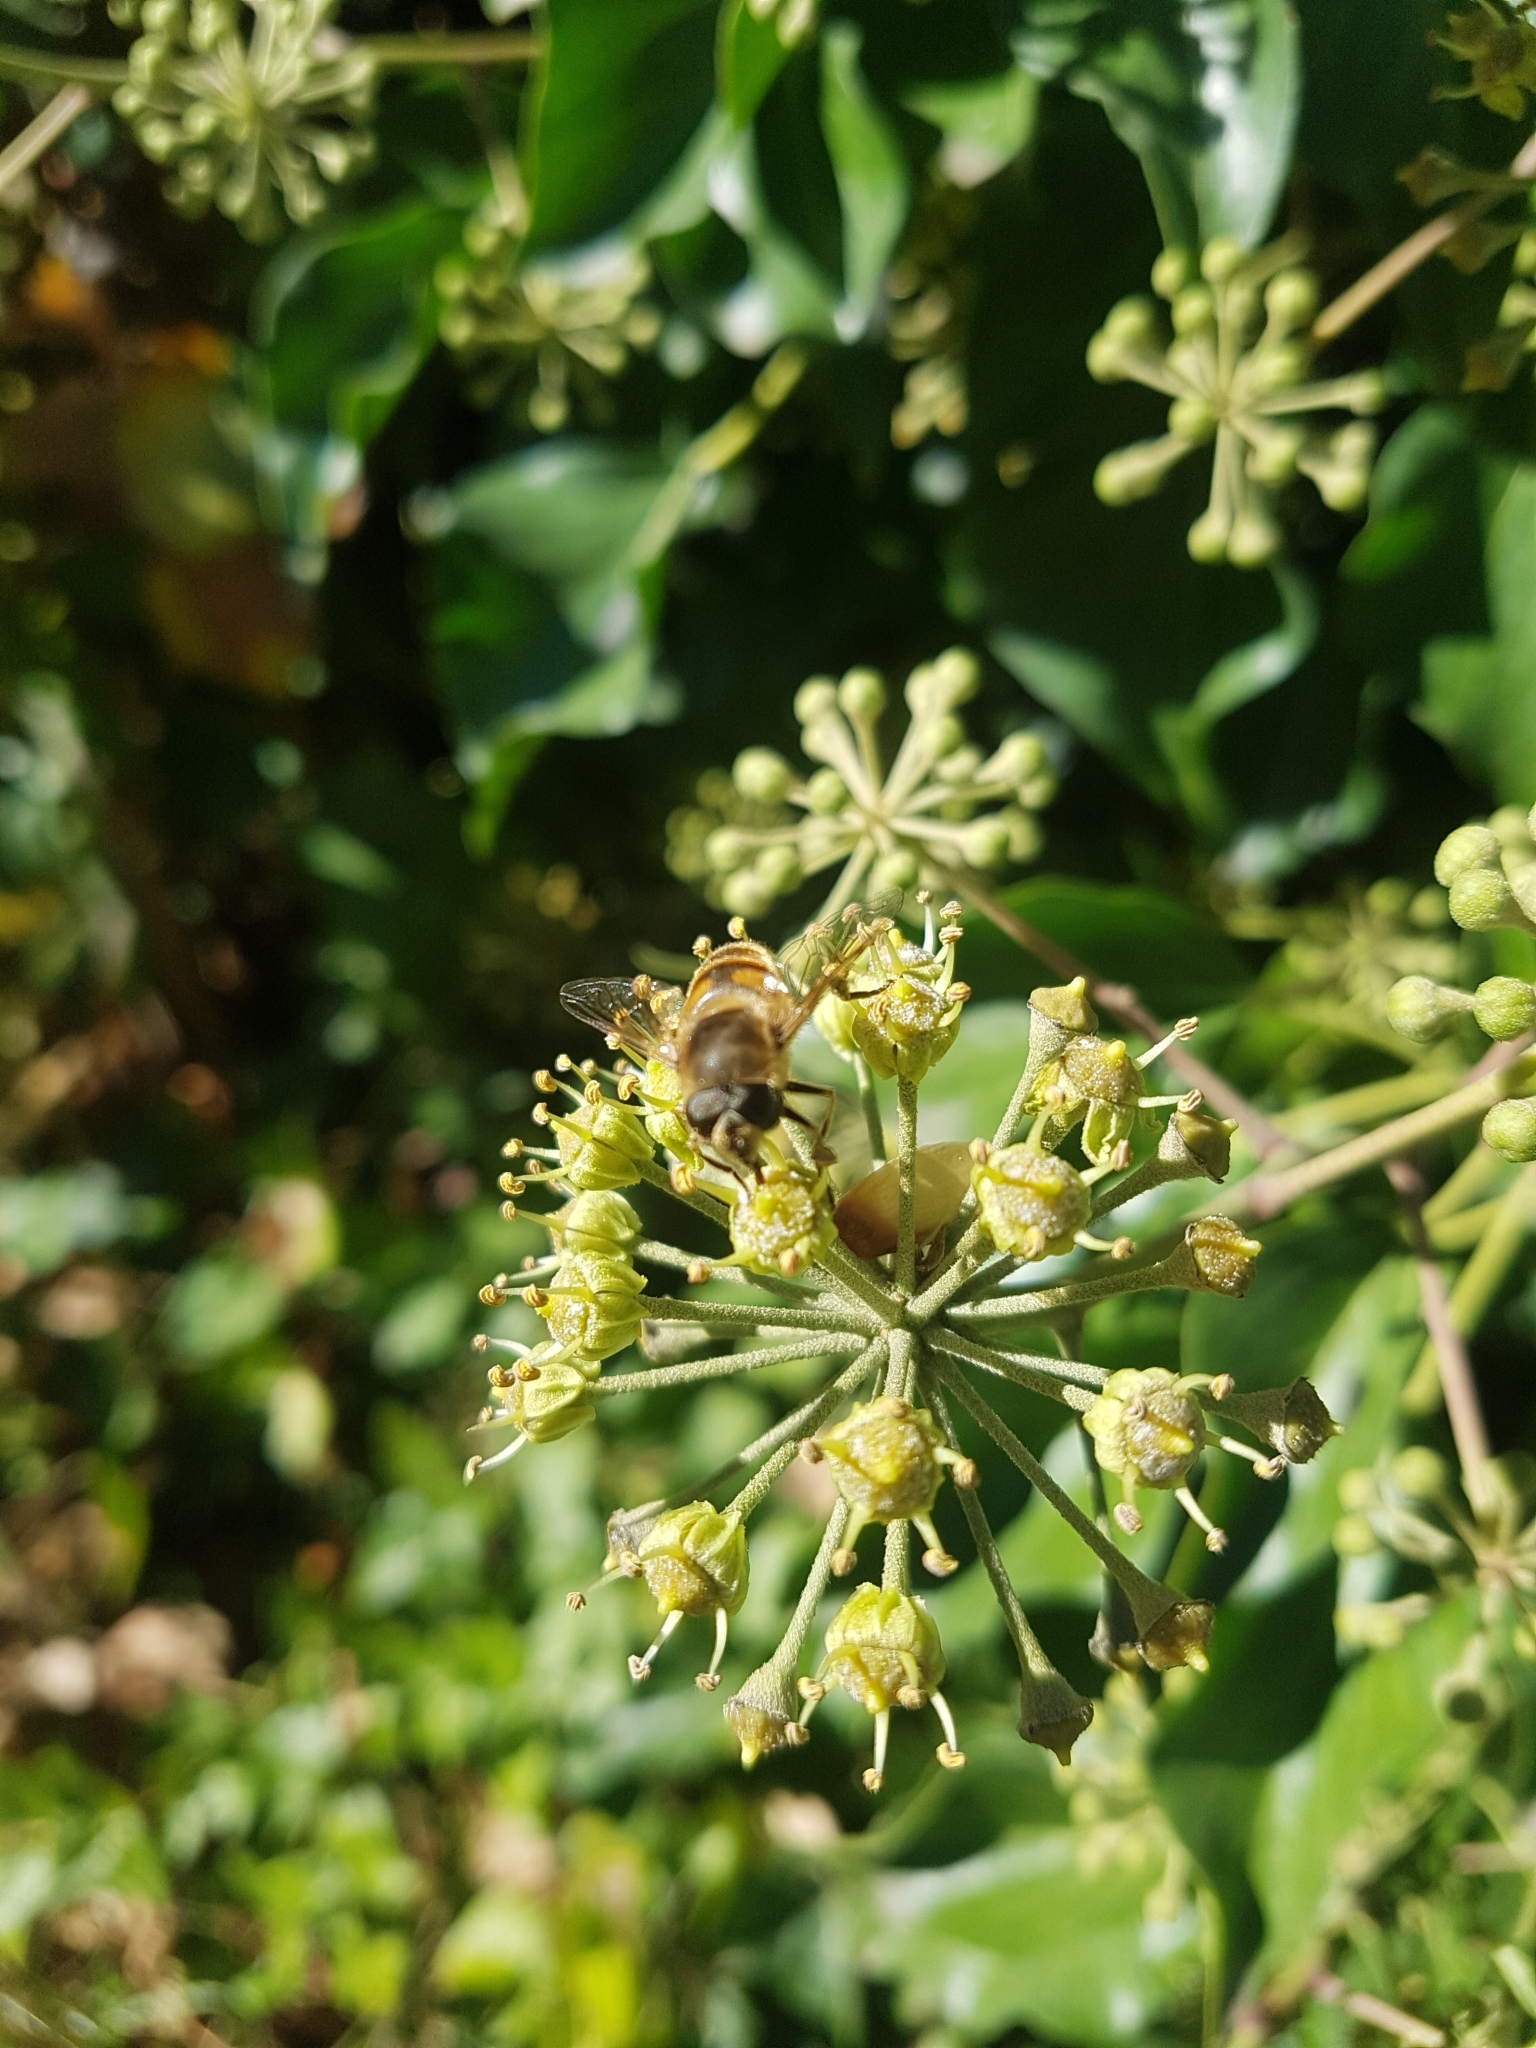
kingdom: Animalia
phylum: Arthropoda
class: Insecta
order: Diptera
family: Syrphidae
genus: Eristalis
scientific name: Eristalis tenax
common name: Drone fly
